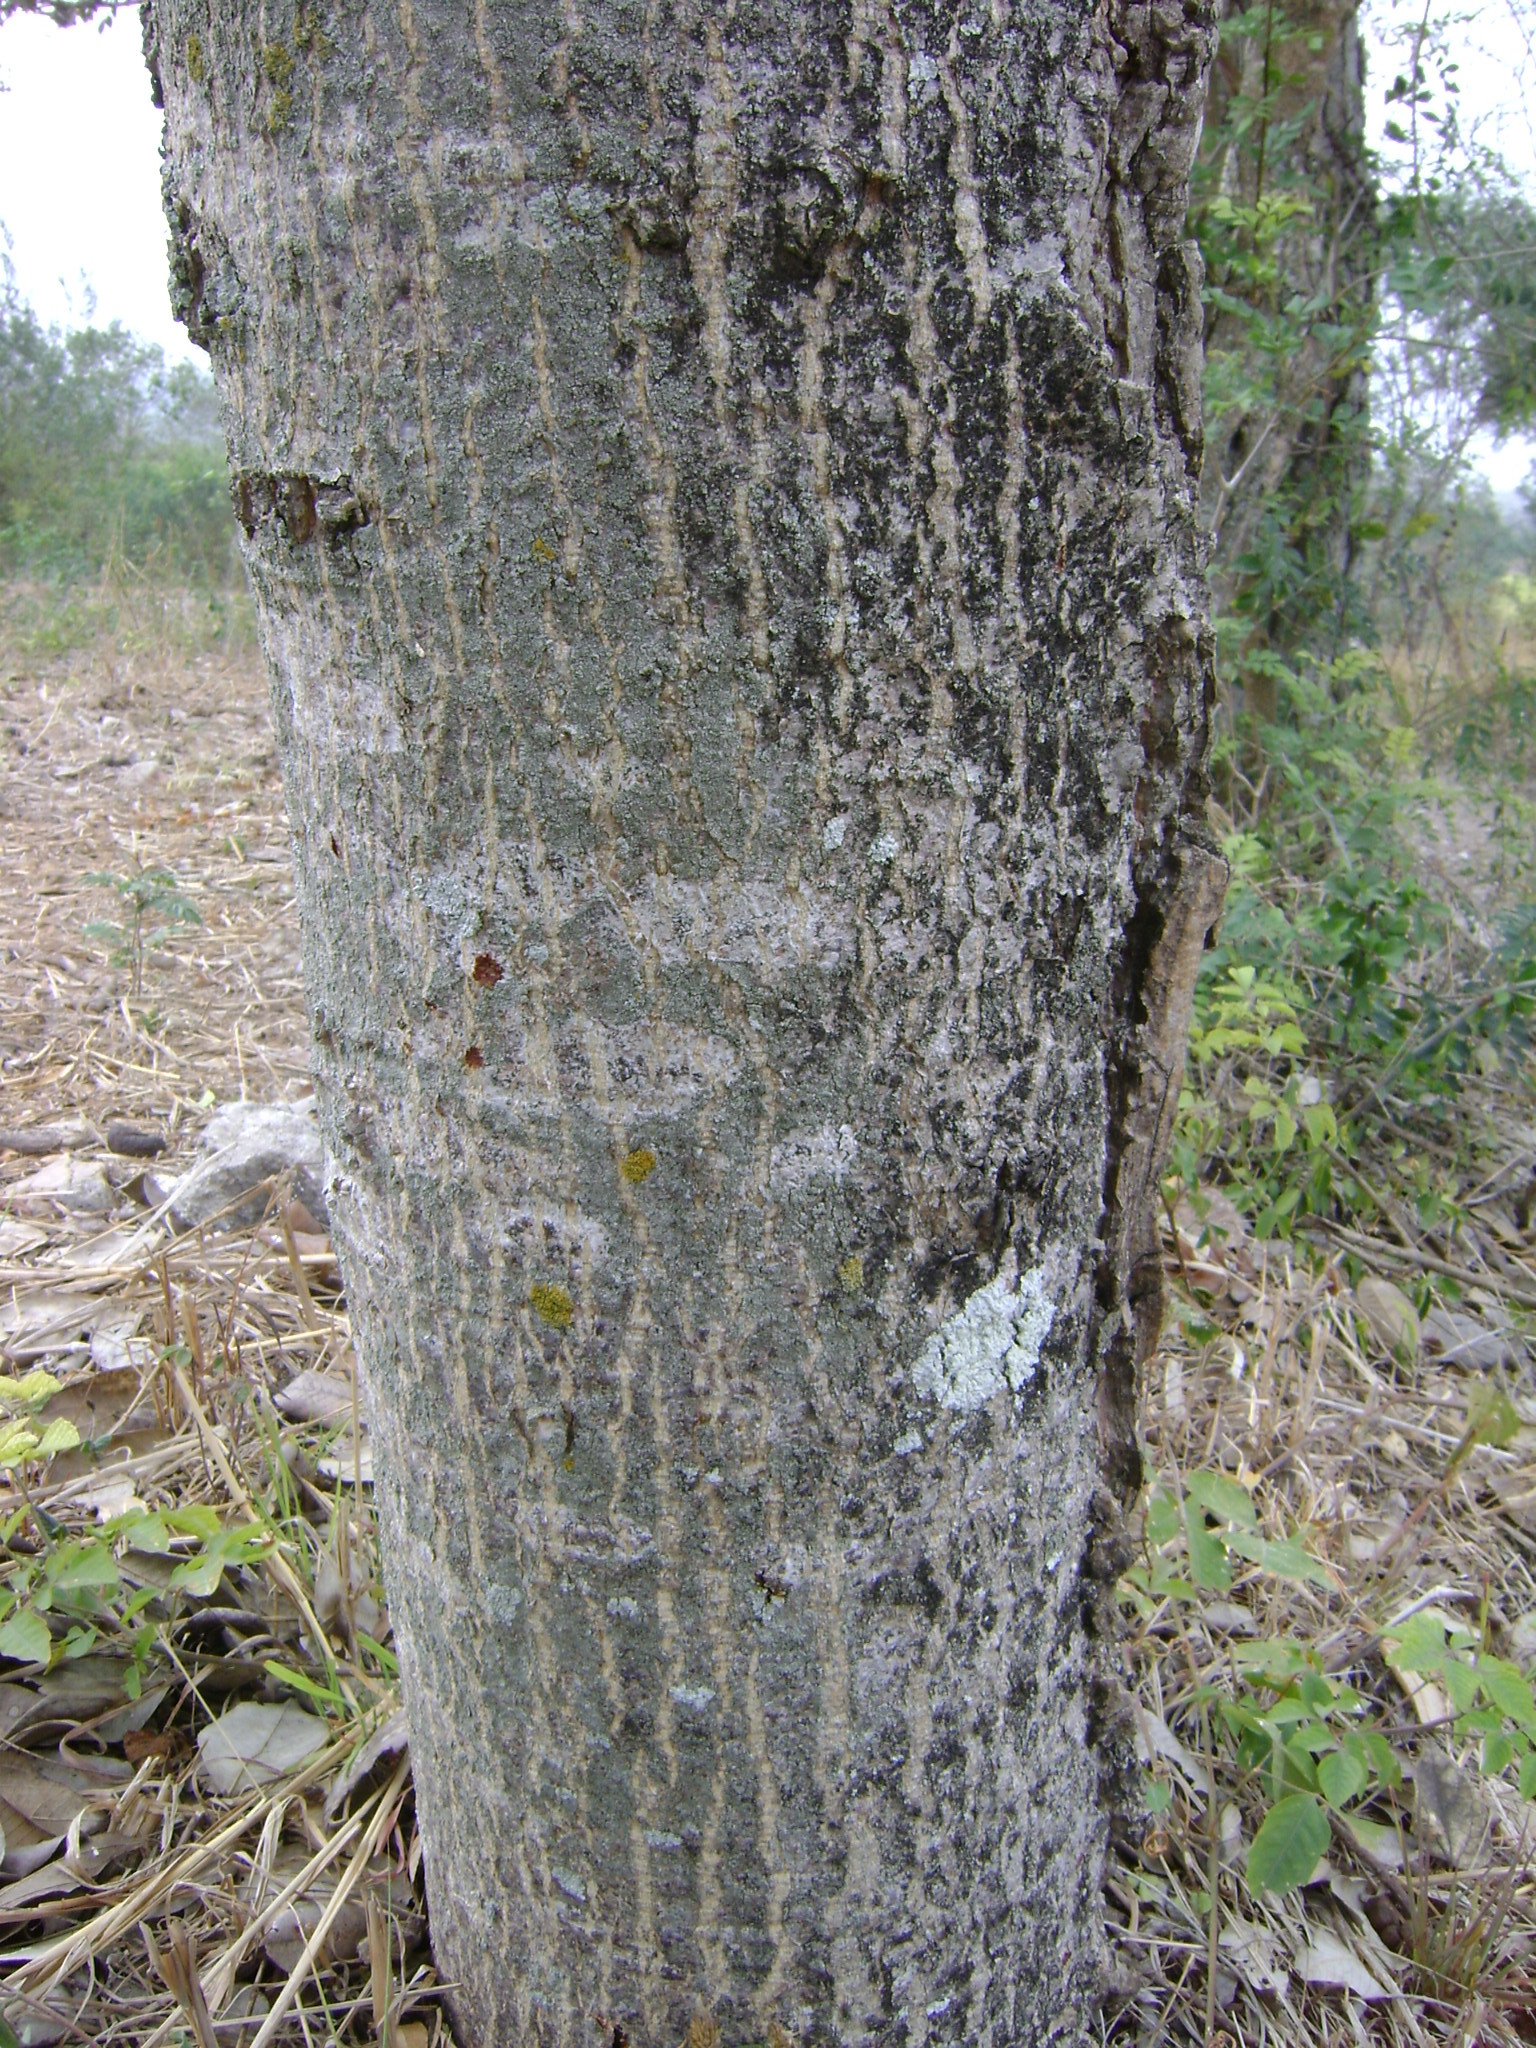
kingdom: Plantae
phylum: Tracheophyta
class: Magnoliopsida
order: Sapindales
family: Anacardiaceae
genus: Spondias
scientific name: Spondias purpurea
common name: Purple mombin
